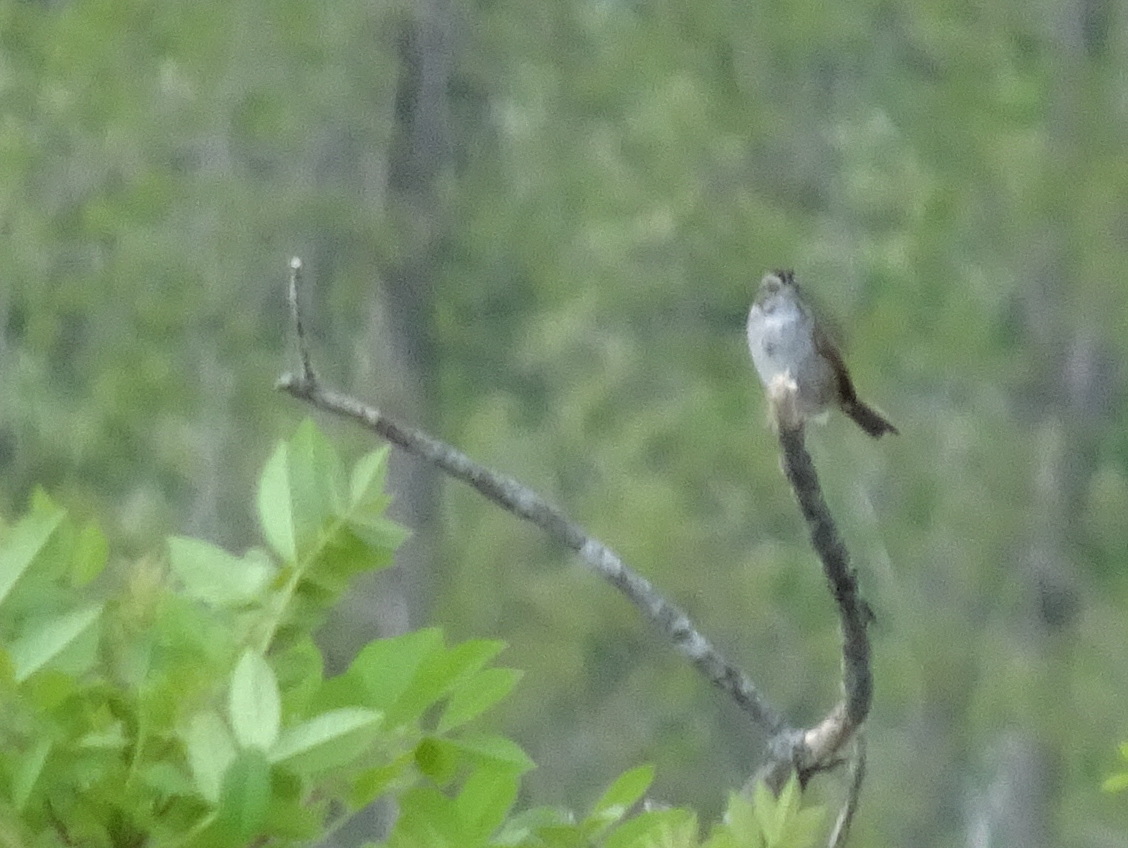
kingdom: Animalia
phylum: Chordata
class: Aves
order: Passeriformes
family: Passerellidae
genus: Melospiza
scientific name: Melospiza georgiana
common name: Swamp sparrow
